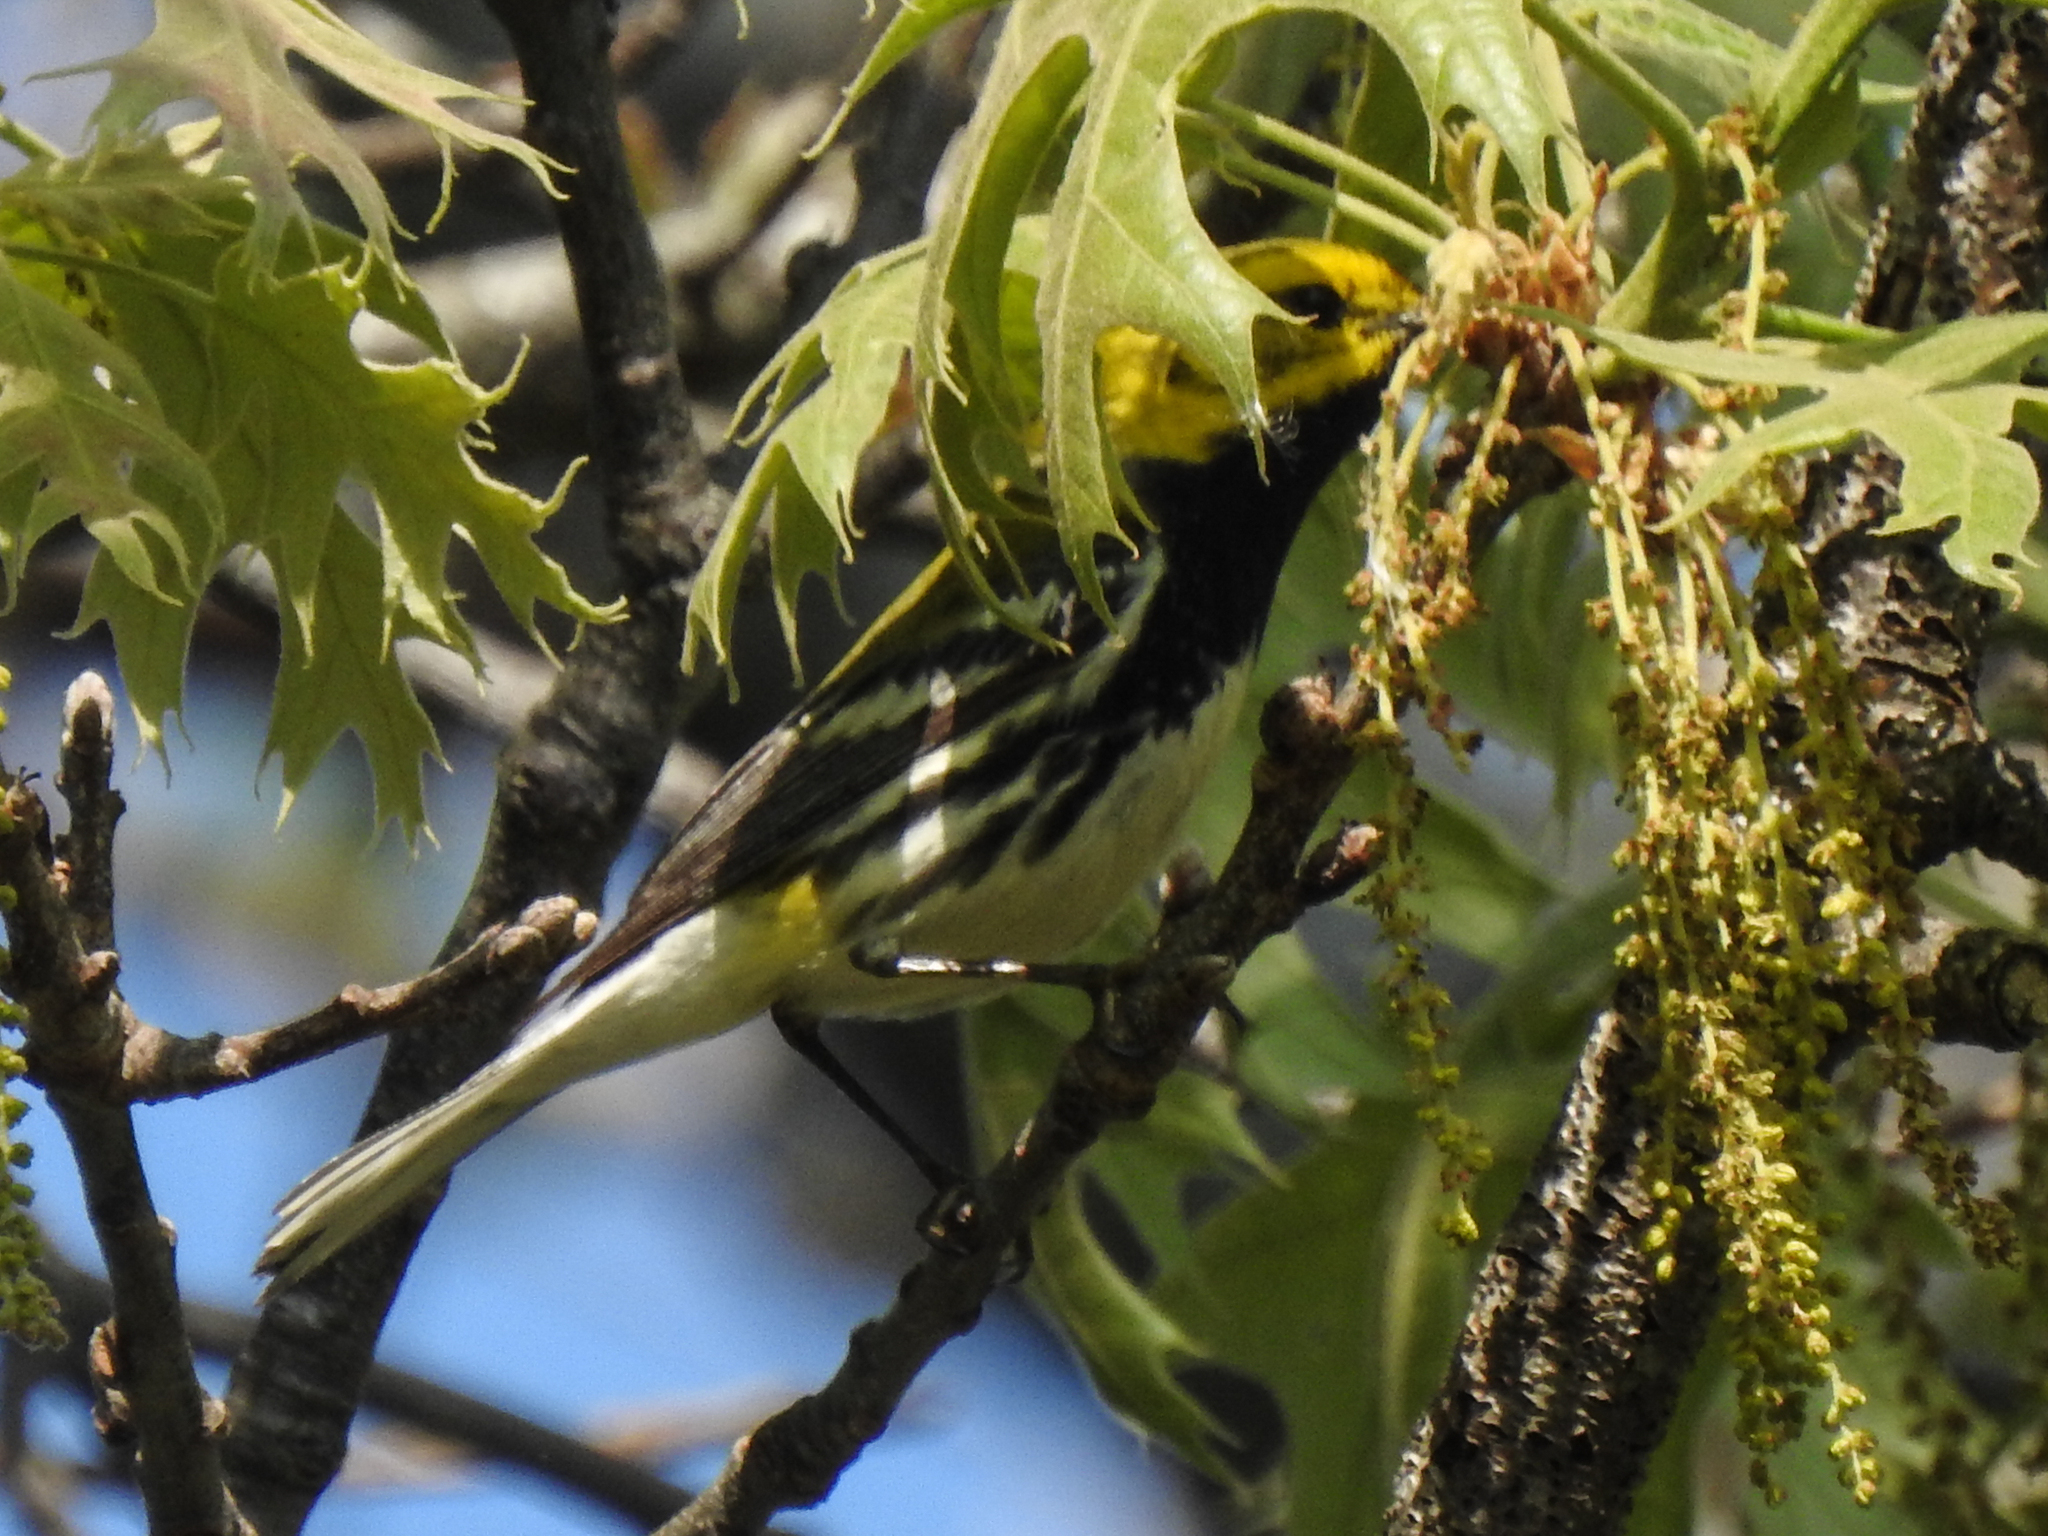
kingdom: Animalia
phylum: Chordata
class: Aves
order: Passeriformes
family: Parulidae
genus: Setophaga
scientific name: Setophaga virens
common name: Black-throated green warbler
